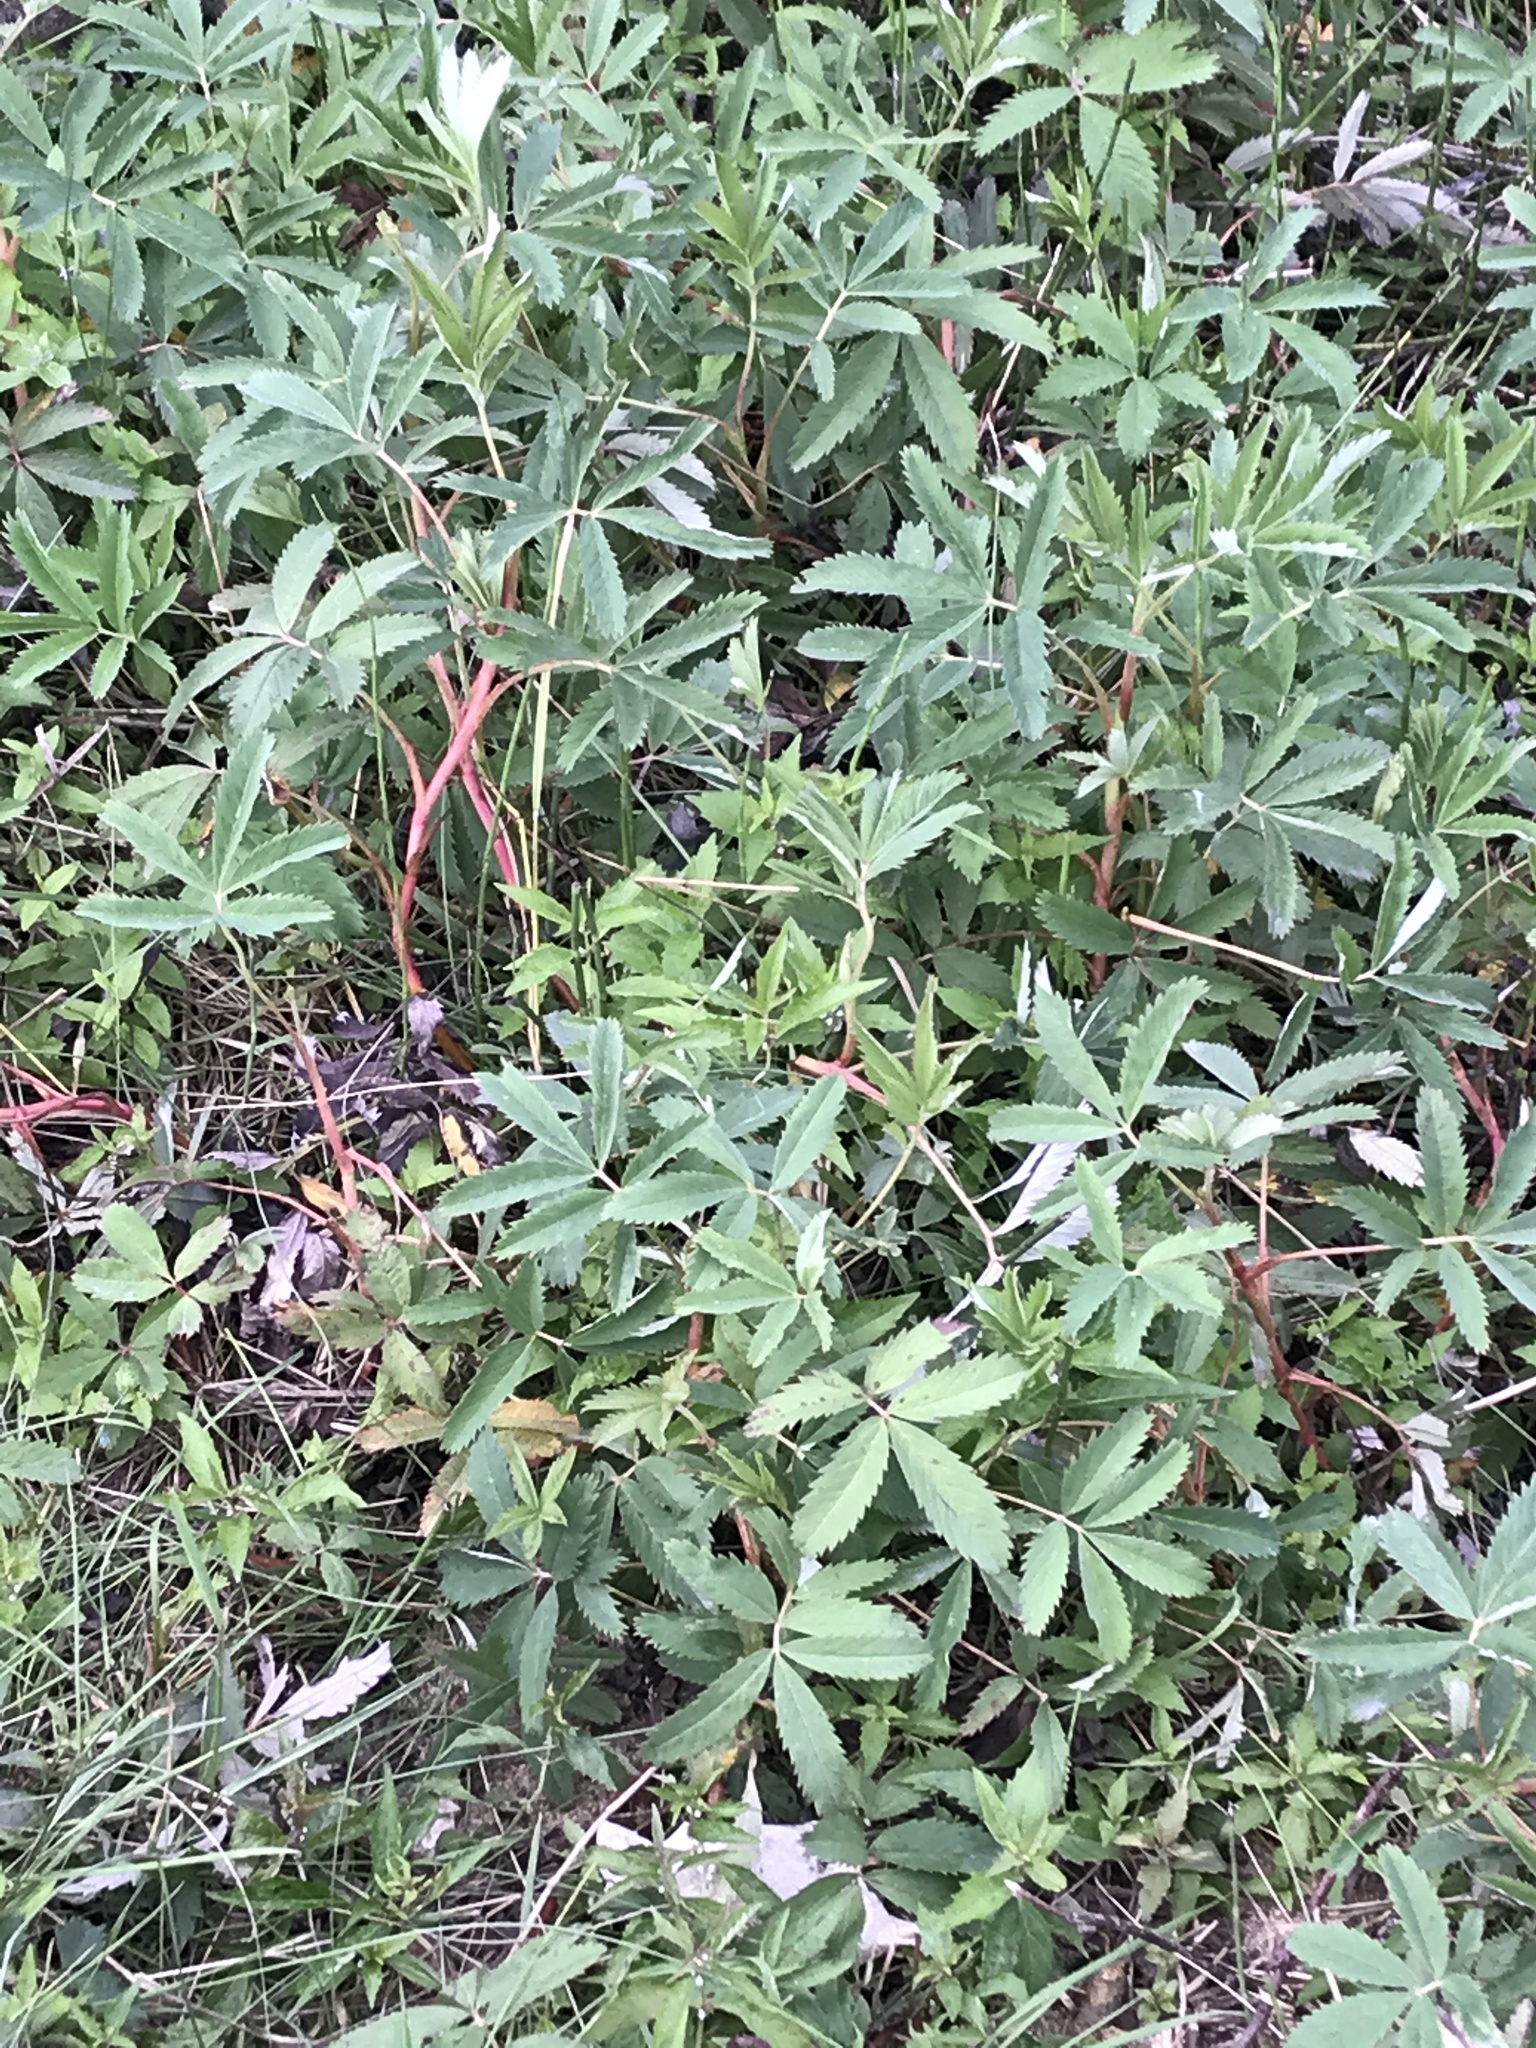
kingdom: Plantae
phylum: Tracheophyta
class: Magnoliopsida
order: Rosales
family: Rosaceae
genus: Comarum
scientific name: Comarum palustre
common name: Marsh cinquefoil
